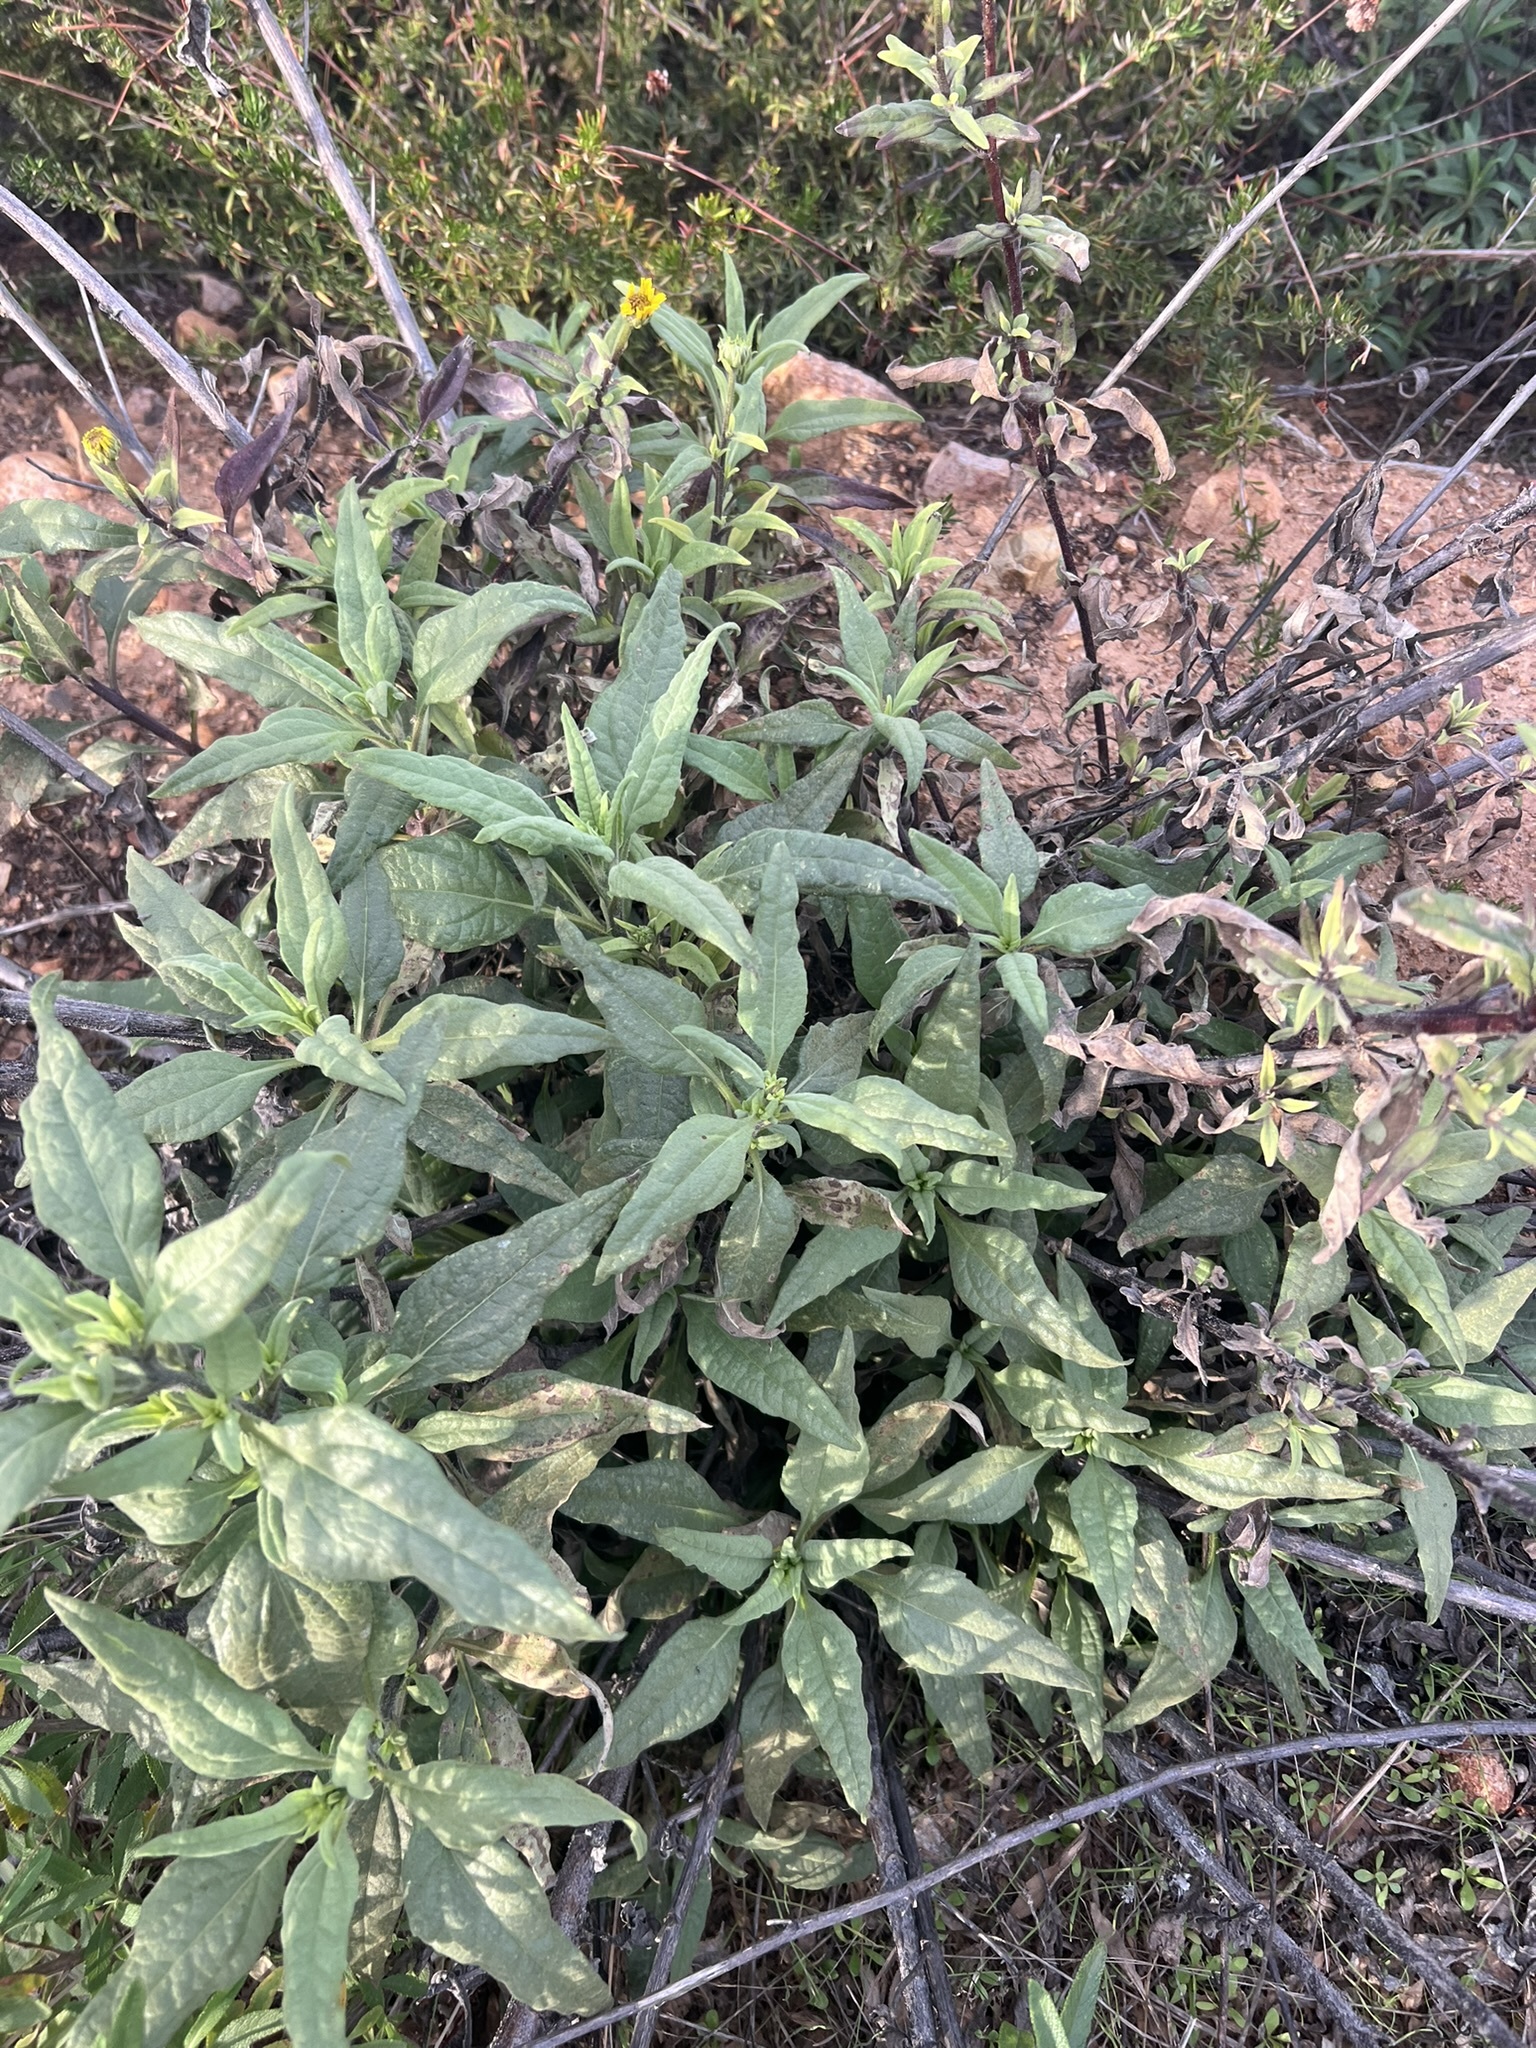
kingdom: Plantae
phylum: Tracheophyta
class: Magnoliopsida
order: Asterales
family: Asteraceae
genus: Helianthus
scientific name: Helianthus gracilentus
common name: Slender sunflower
